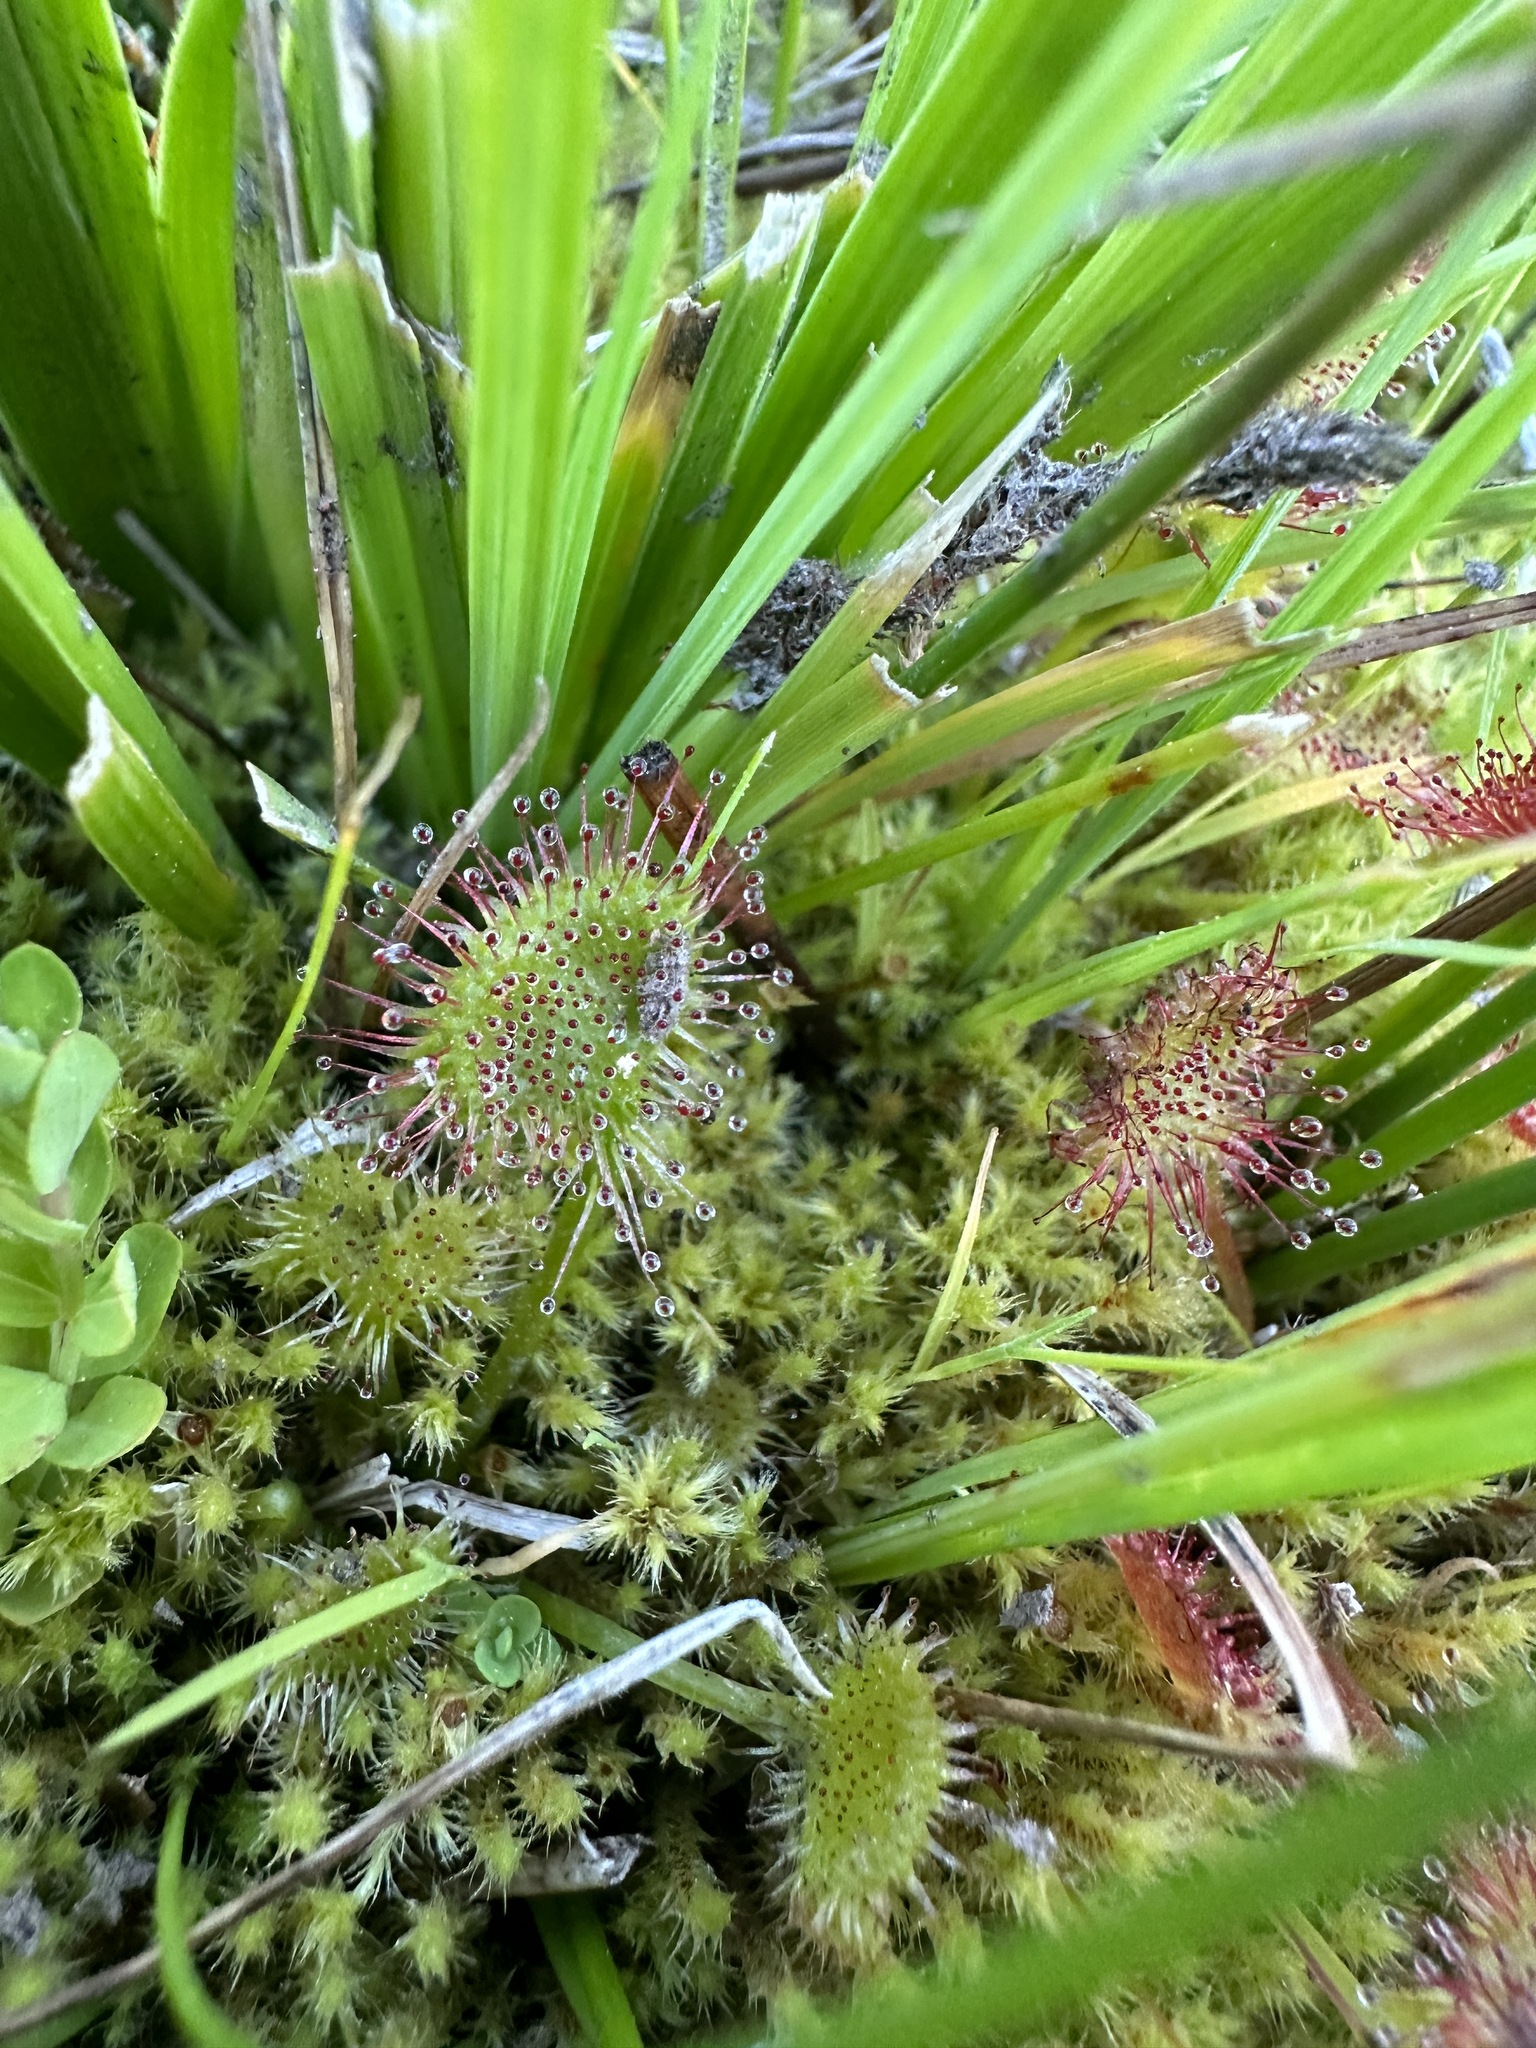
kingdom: Plantae
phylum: Tracheophyta
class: Magnoliopsida
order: Caryophyllales
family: Droseraceae
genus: Drosera
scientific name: Drosera rotundifolia
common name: Round-leaved sundew
